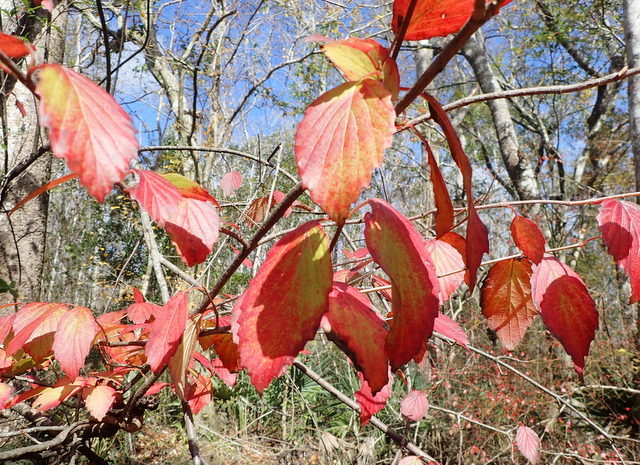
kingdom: Plantae
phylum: Tracheophyta
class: Magnoliopsida
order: Dipsacales
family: Viburnaceae
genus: Viburnum
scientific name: Viburnum scabrellum
